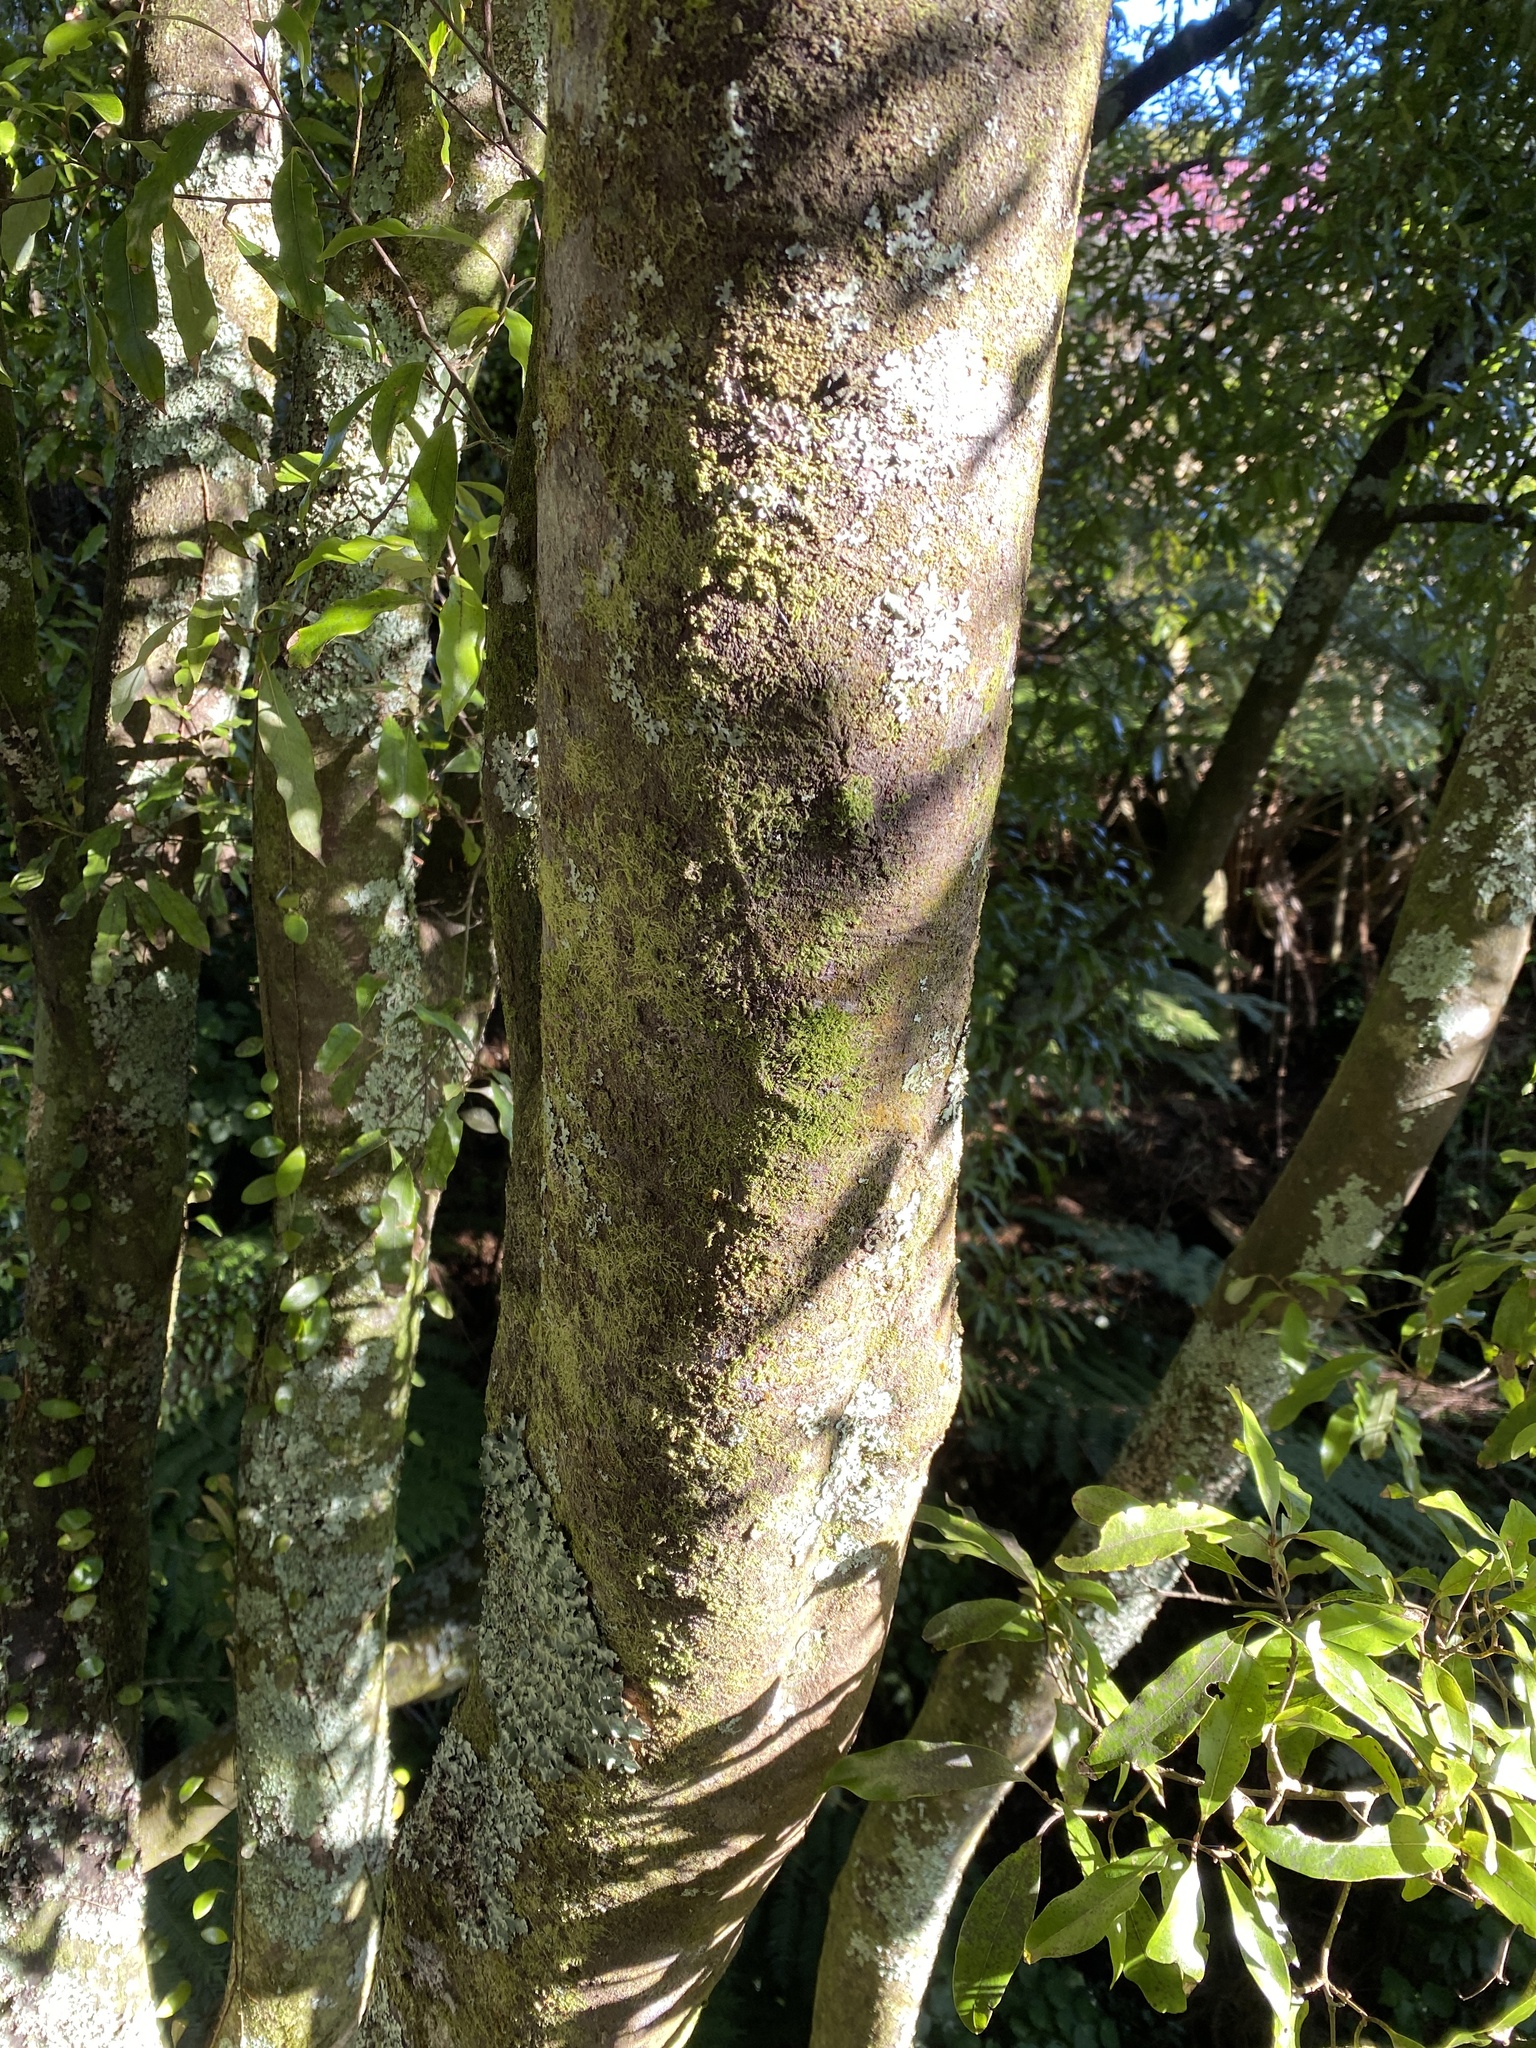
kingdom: Plantae
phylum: Tracheophyta
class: Magnoliopsida
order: Laurales
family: Lauraceae
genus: Beilschmiedia
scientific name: Beilschmiedia tawa
